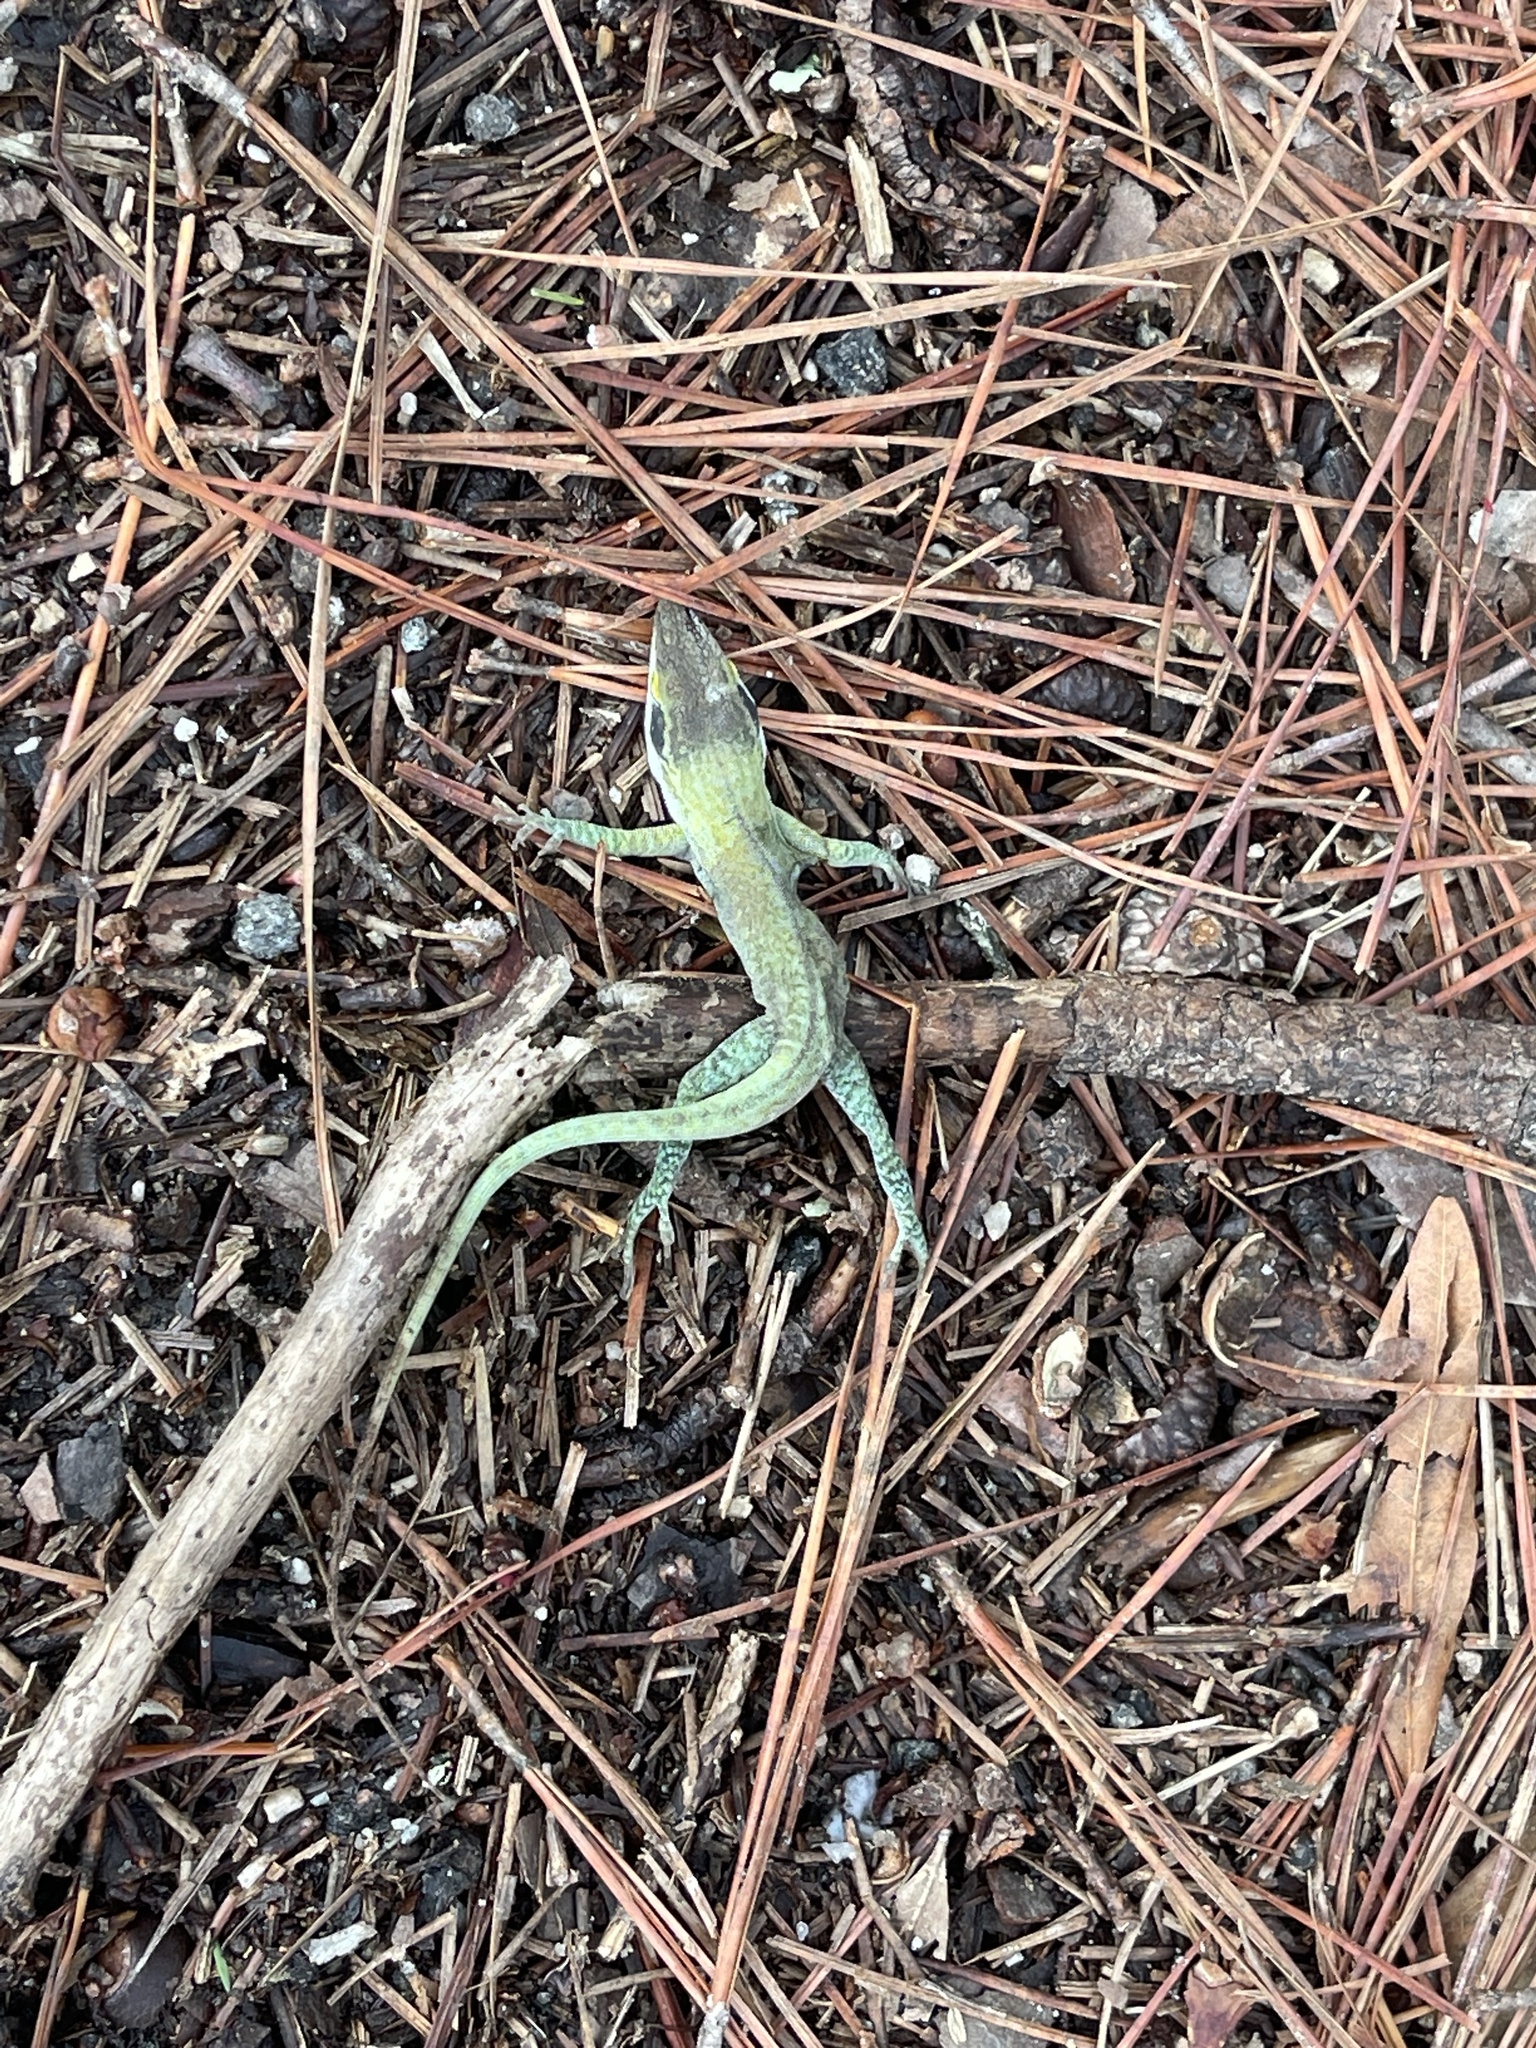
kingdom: Animalia
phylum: Chordata
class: Squamata
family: Dactyloidae
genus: Anolis
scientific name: Anolis carolinensis
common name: Green anole
